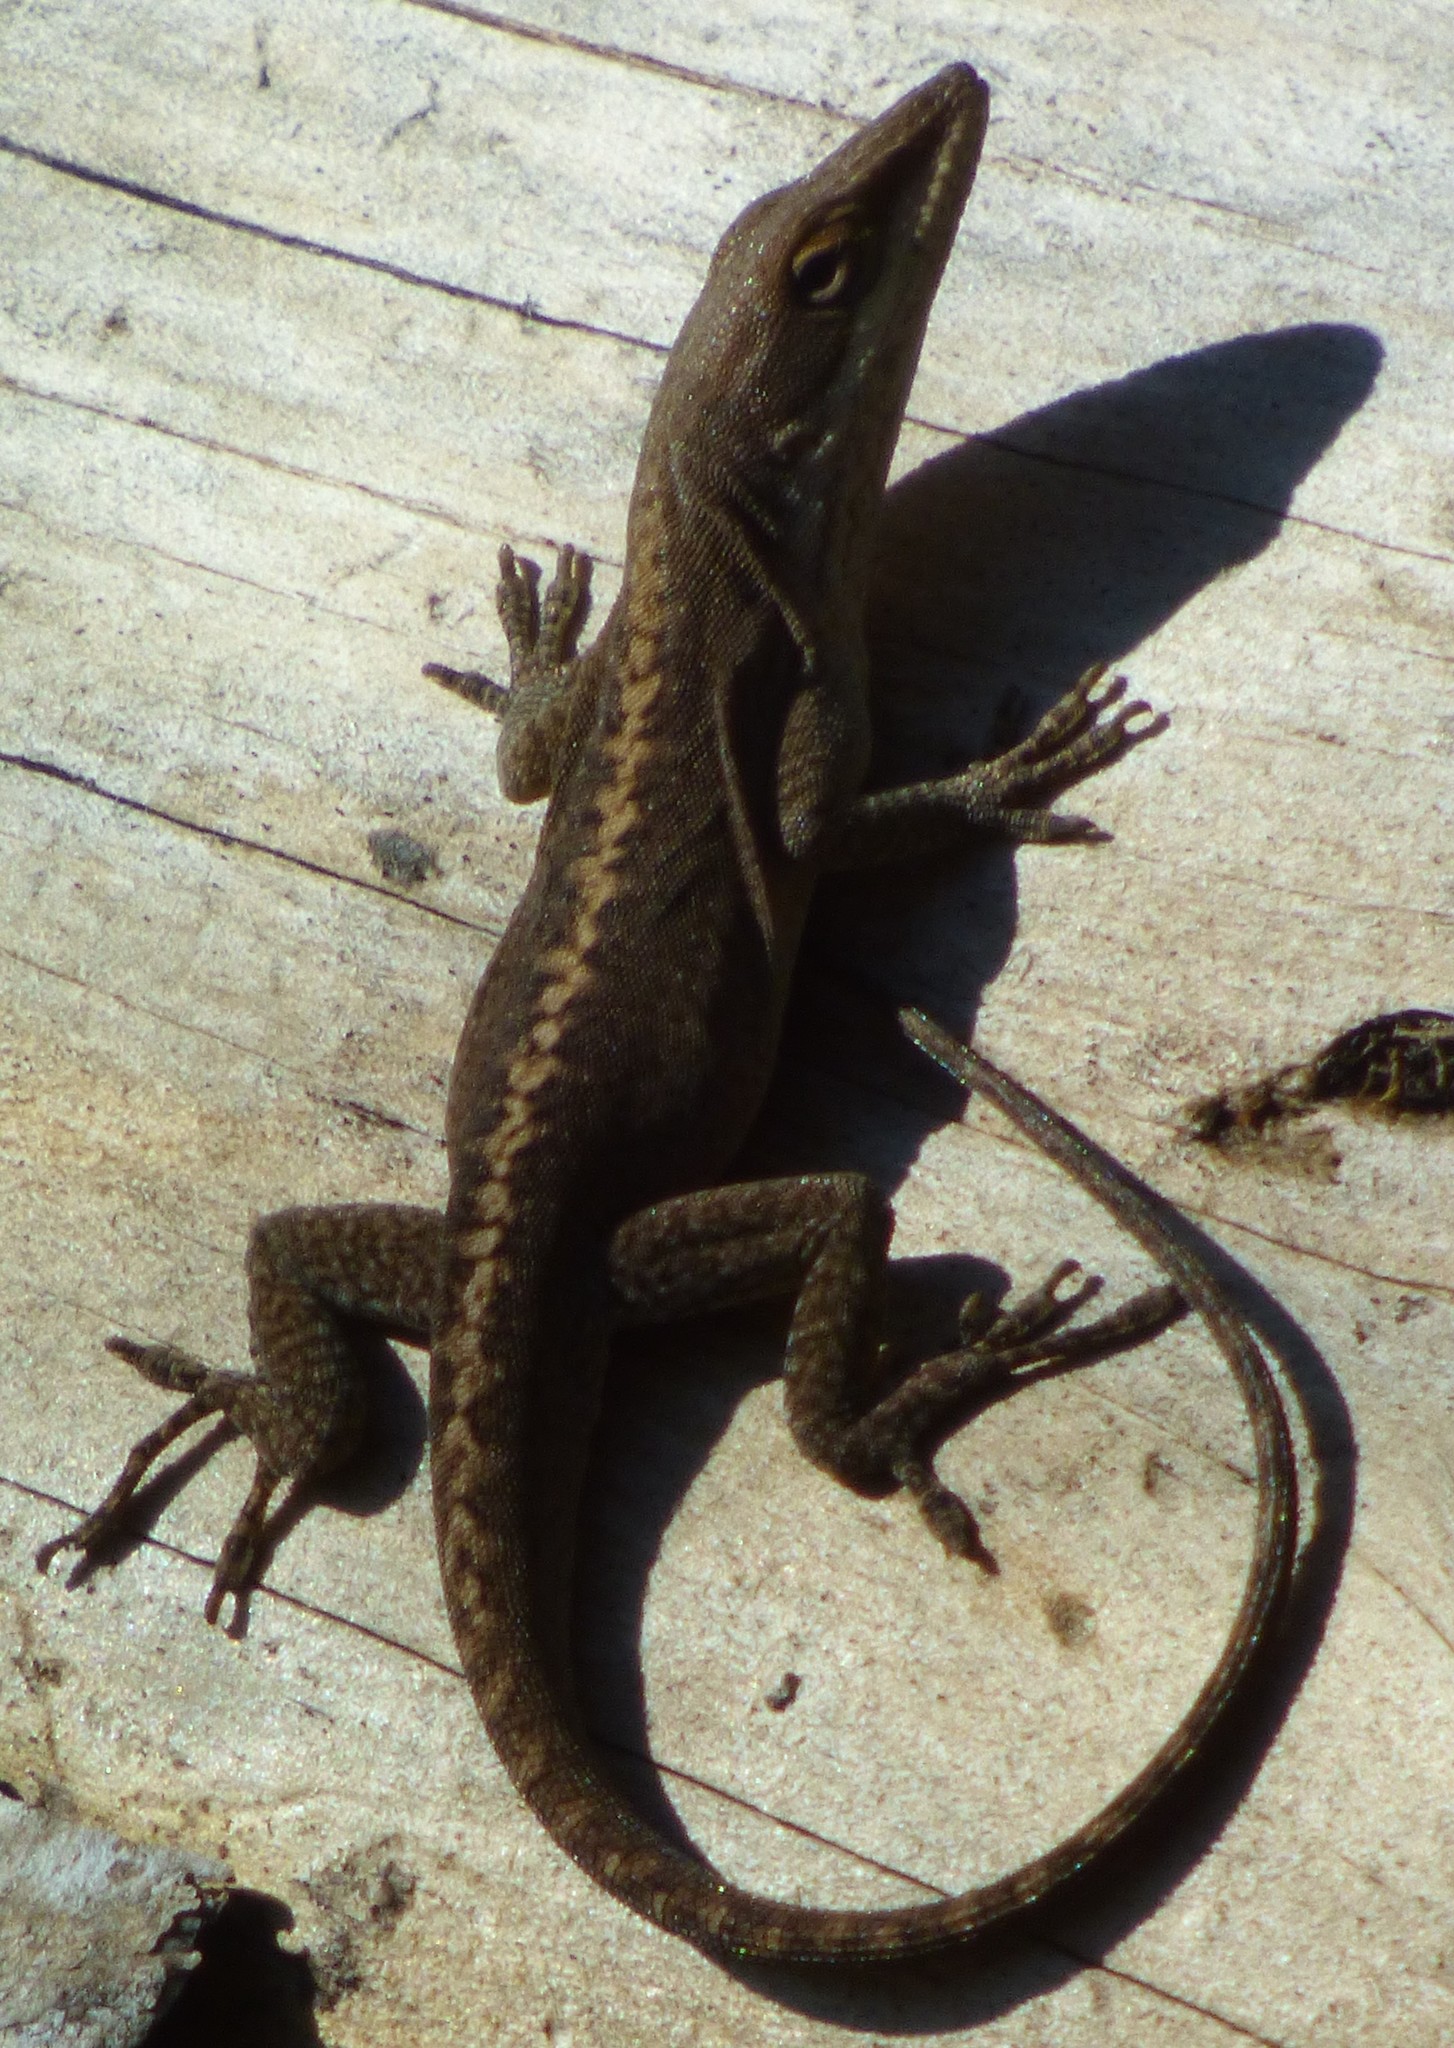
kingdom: Animalia
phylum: Chordata
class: Squamata
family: Dactyloidae
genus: Anolis
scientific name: Anolis carolinensis
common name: Green anole
